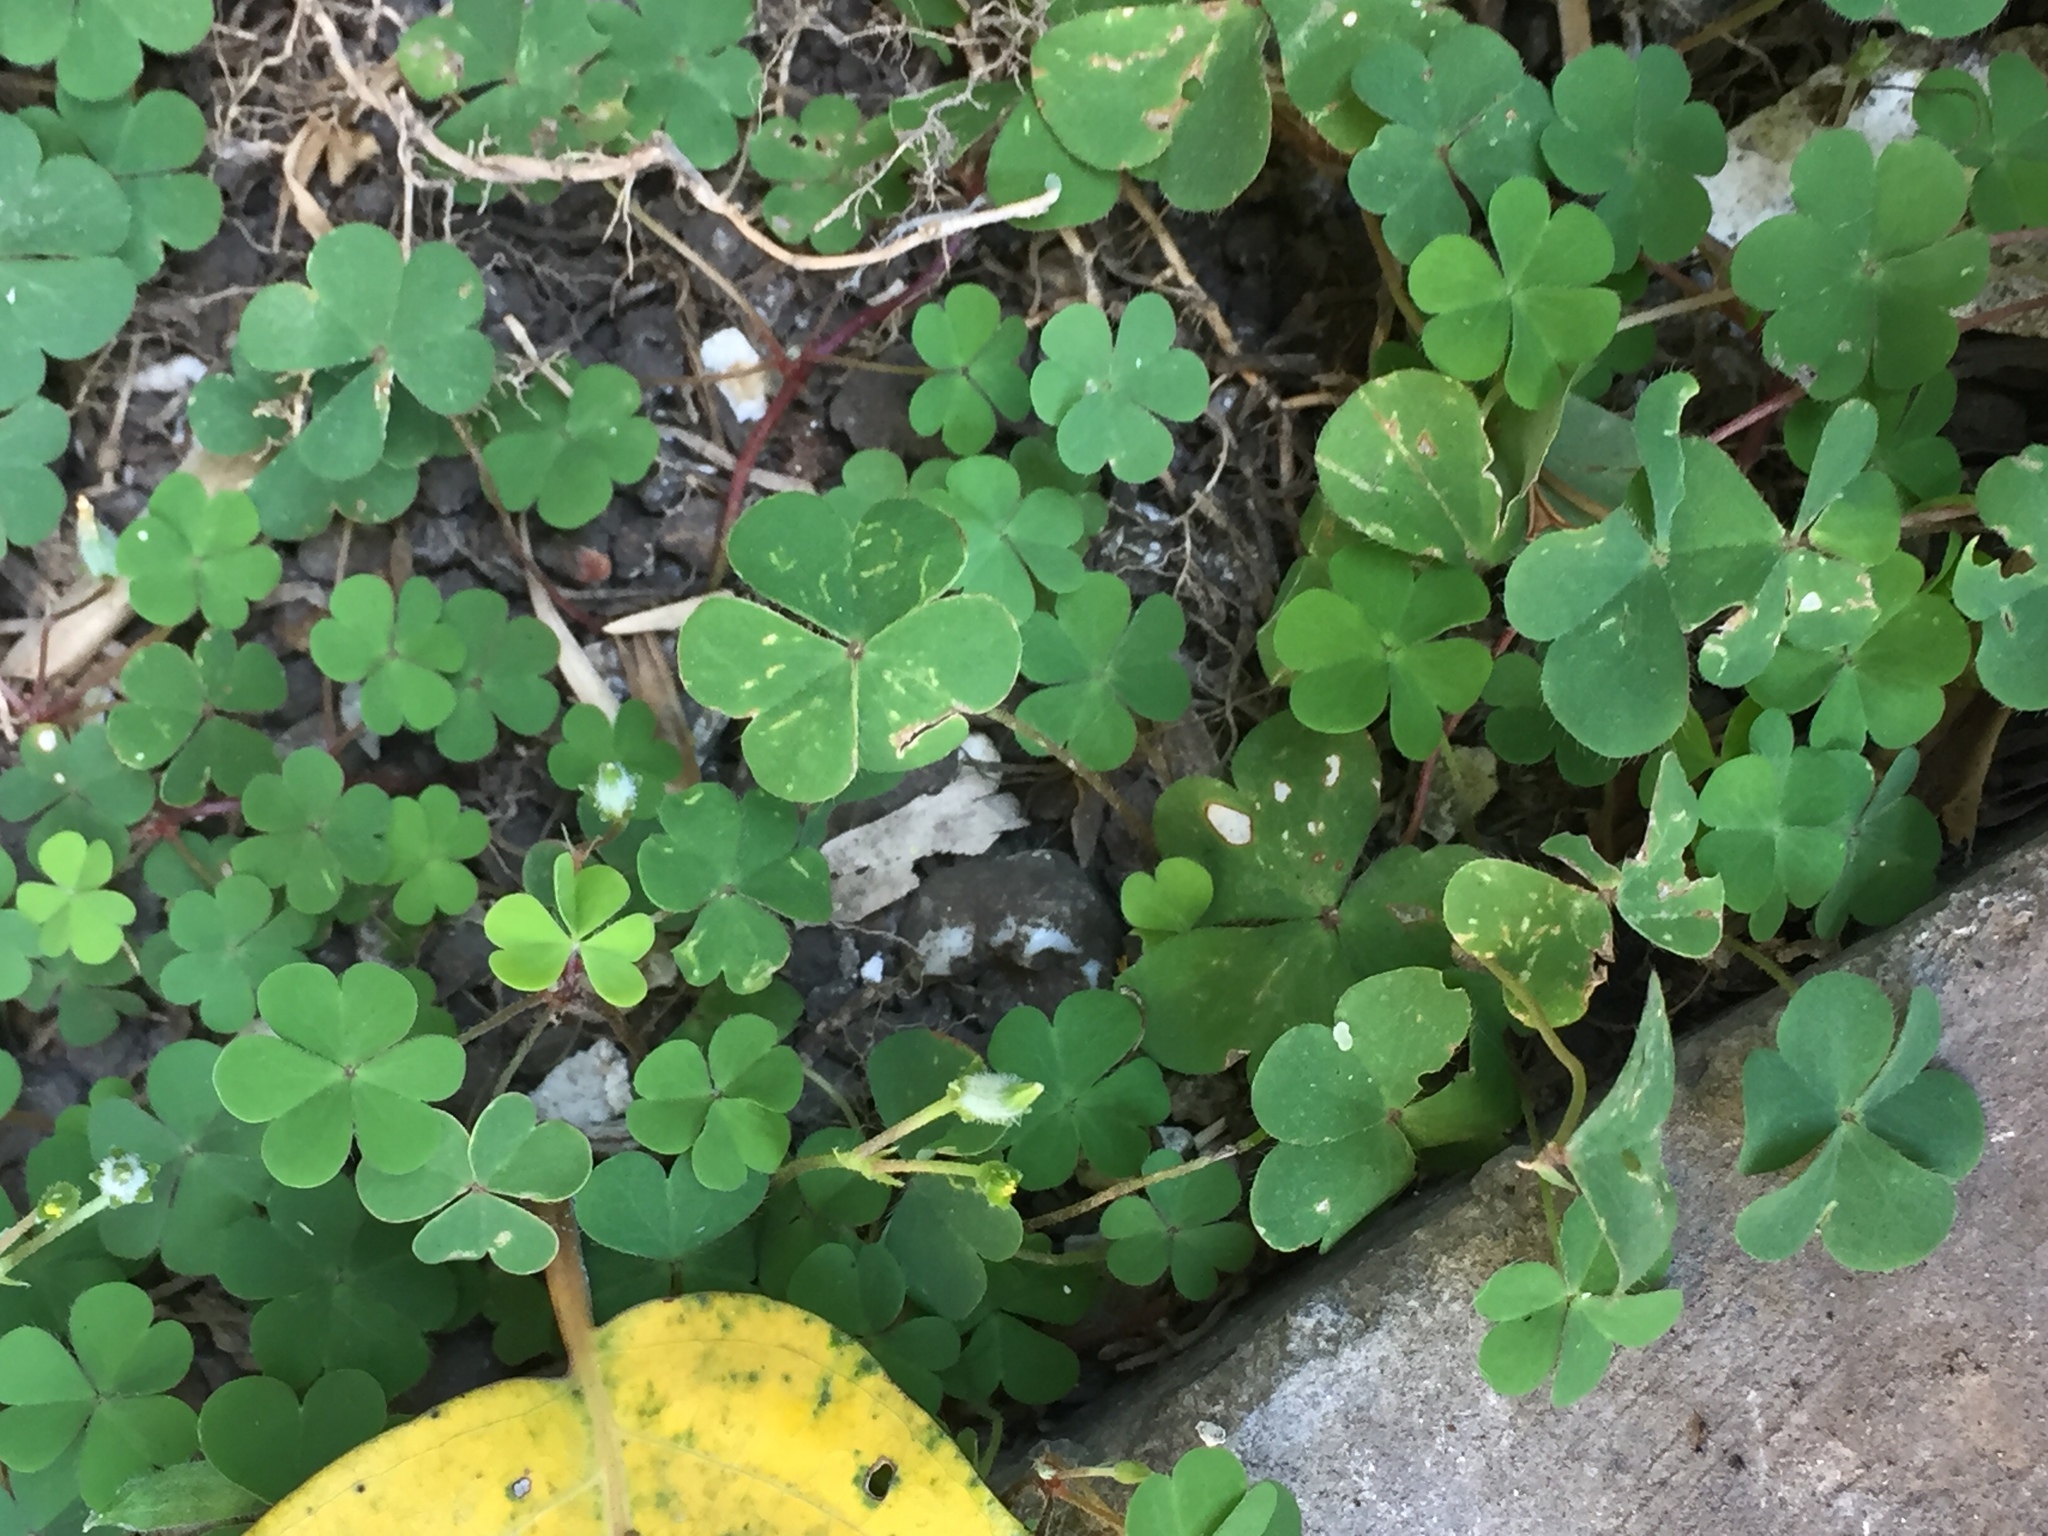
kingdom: Plantae
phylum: Tracheophyta
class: Magnoliopsida
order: Oxalidales
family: Oxalidaceae
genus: Oxalis
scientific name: Oxalis corniculata
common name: Procumbent yellow-sorrel
